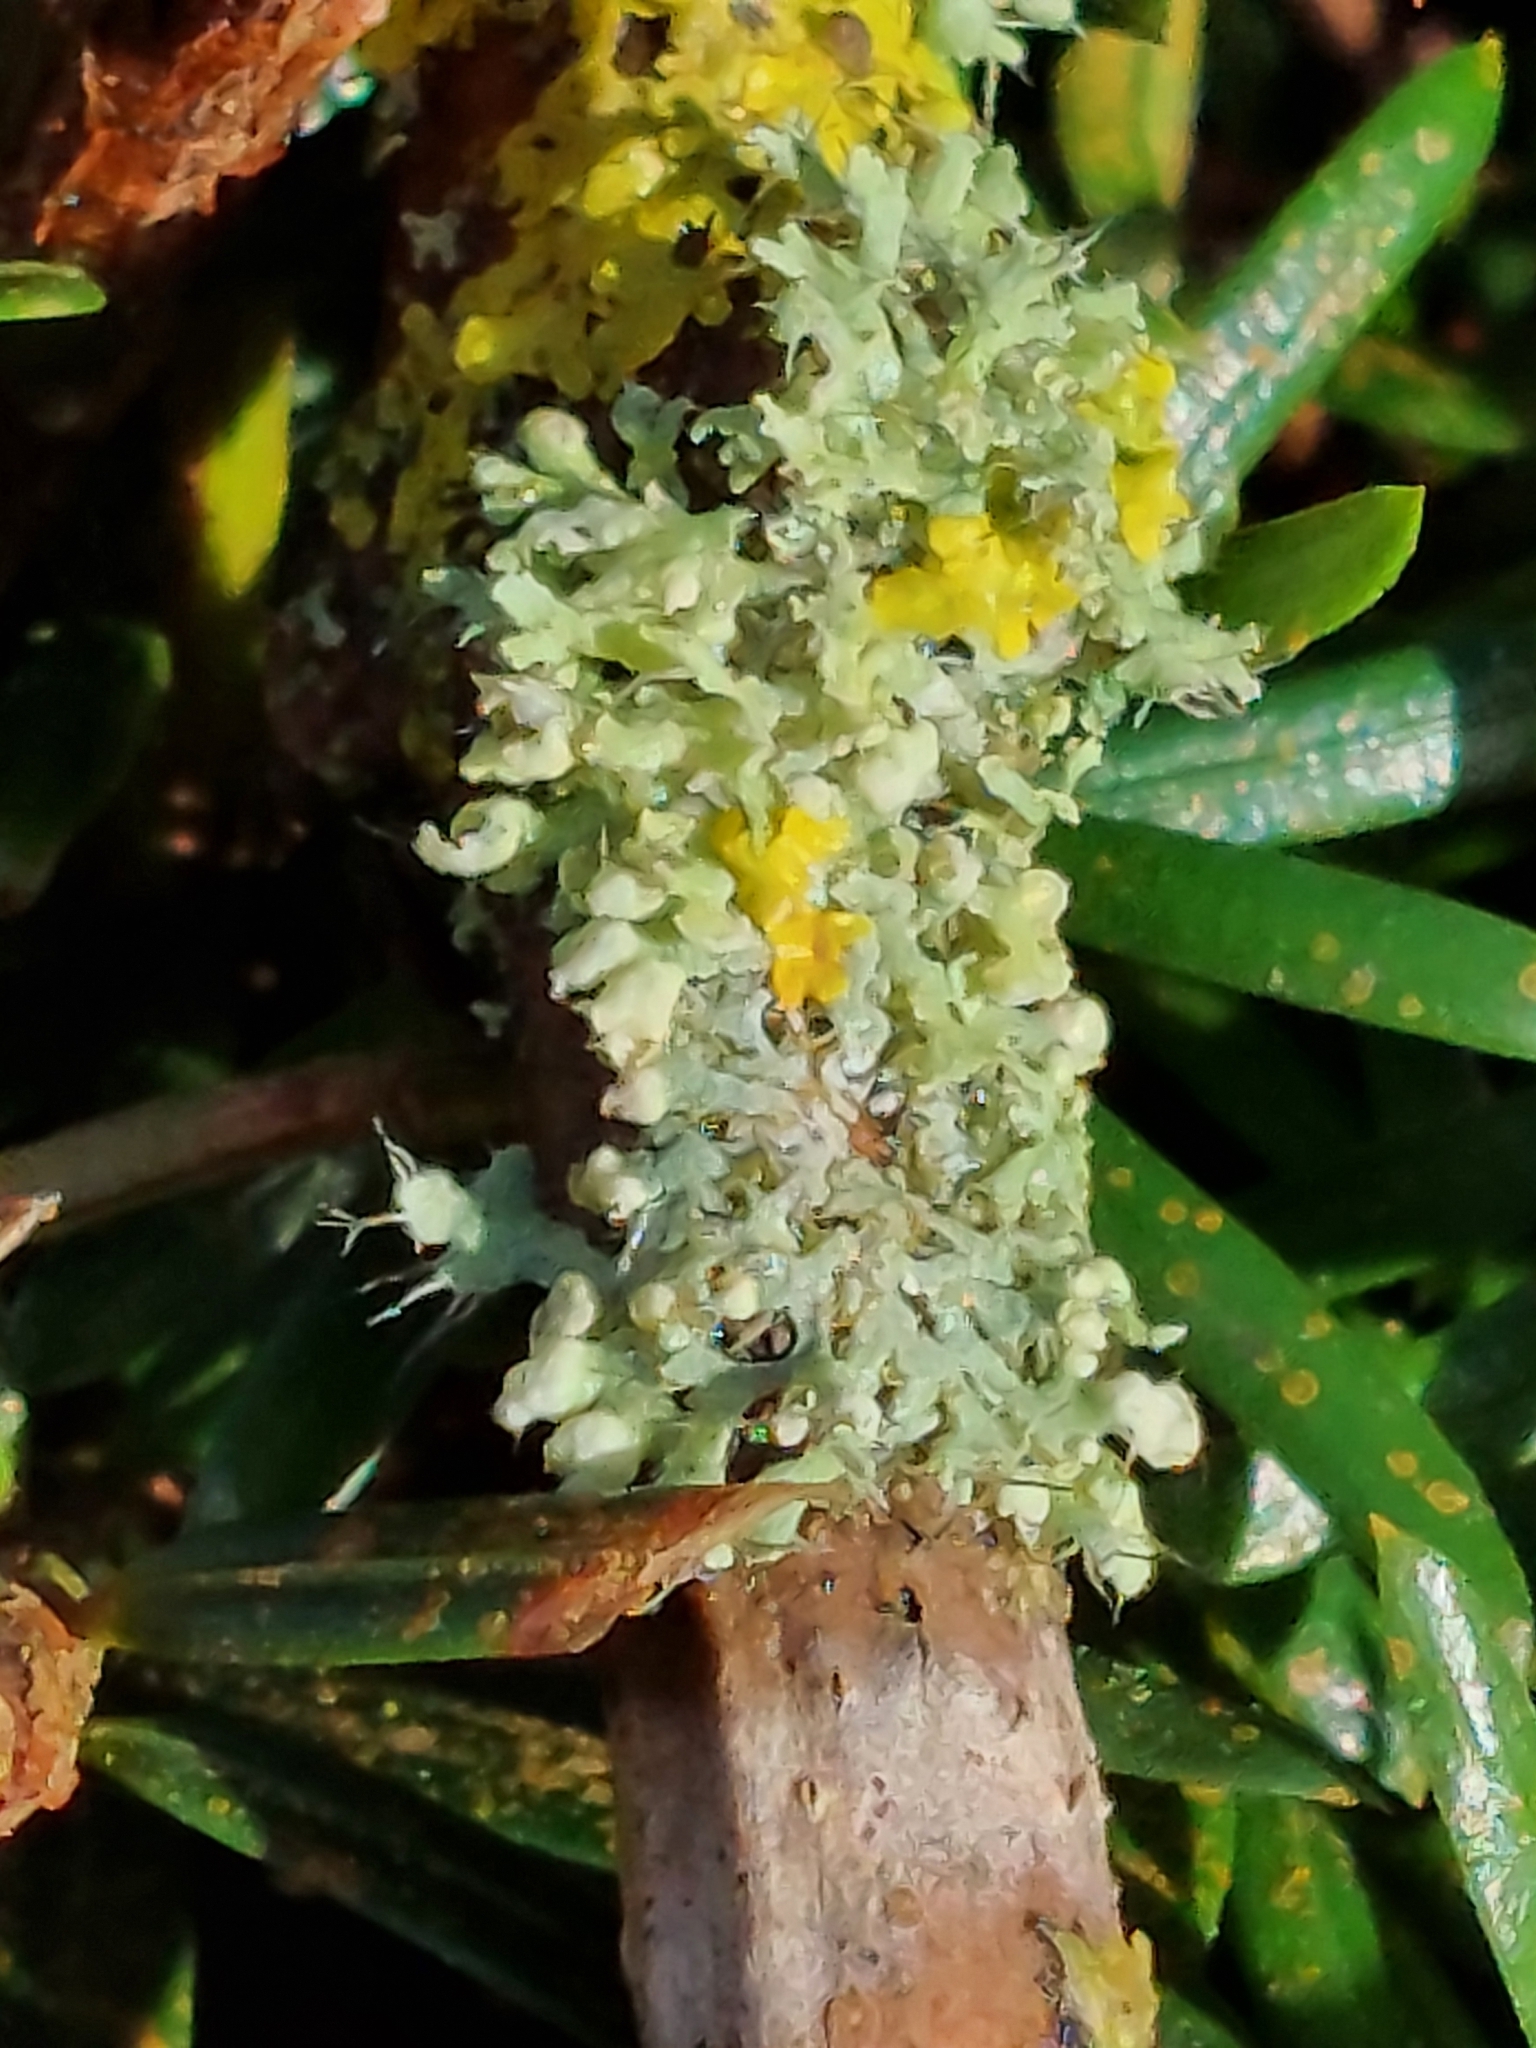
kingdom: Fungi
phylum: Ascomycota
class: Lecanoromycetes
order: Caliciales
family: Physciaceae
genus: Physcia
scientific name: Physcia adscendens
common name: Hooded rosette lichen
